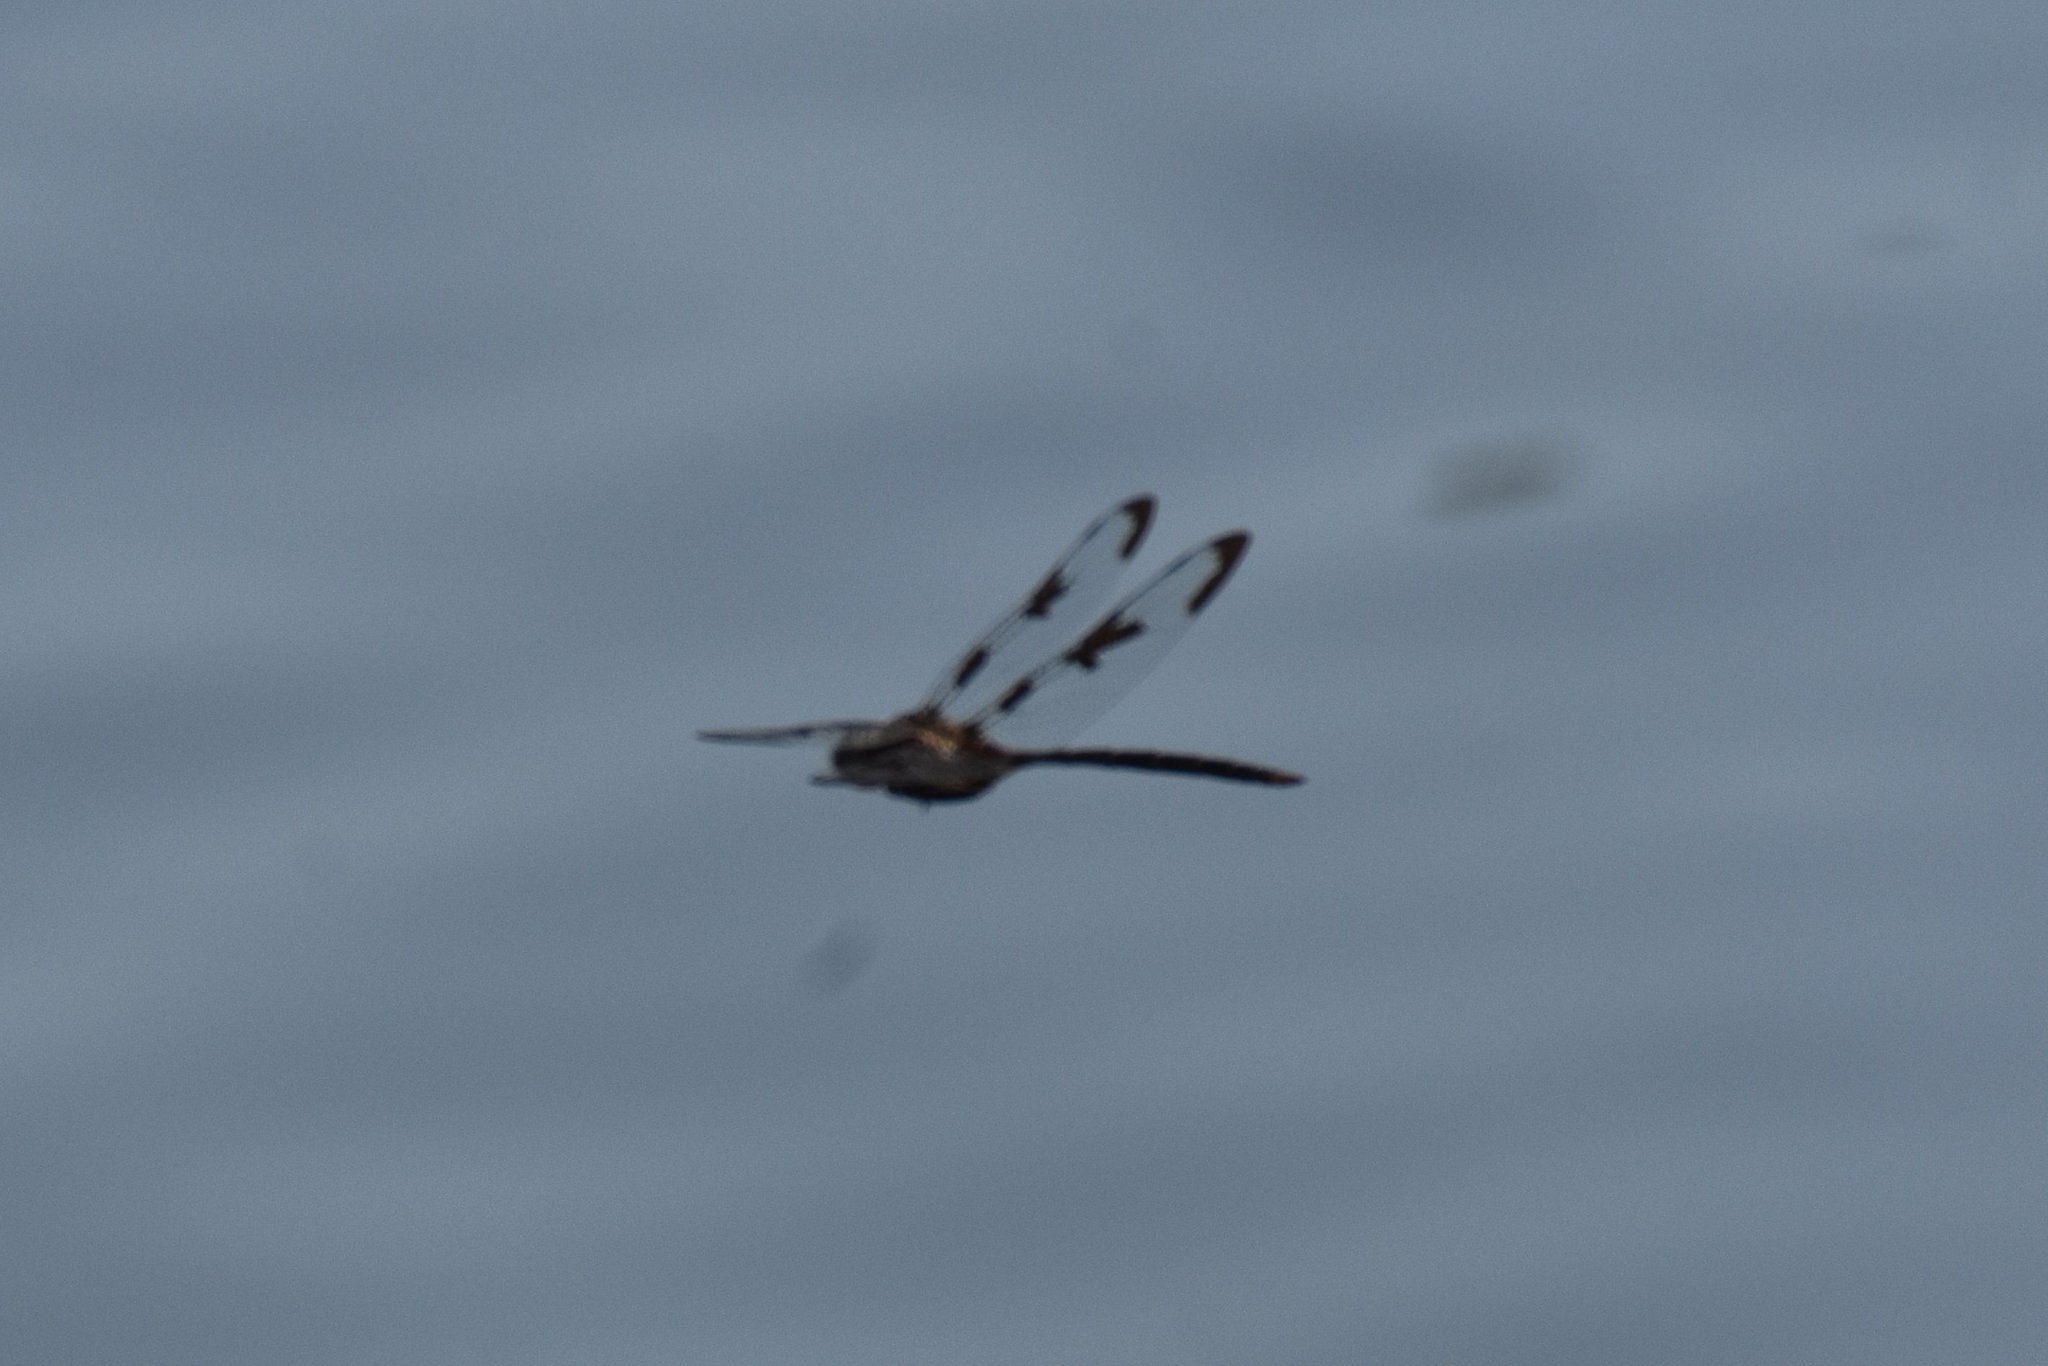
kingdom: Animalia
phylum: Arthropoda
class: Insecta
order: Odonata
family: Corduliidae
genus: Epitheca
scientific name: Epitheca princeps
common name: Prince baskettail
